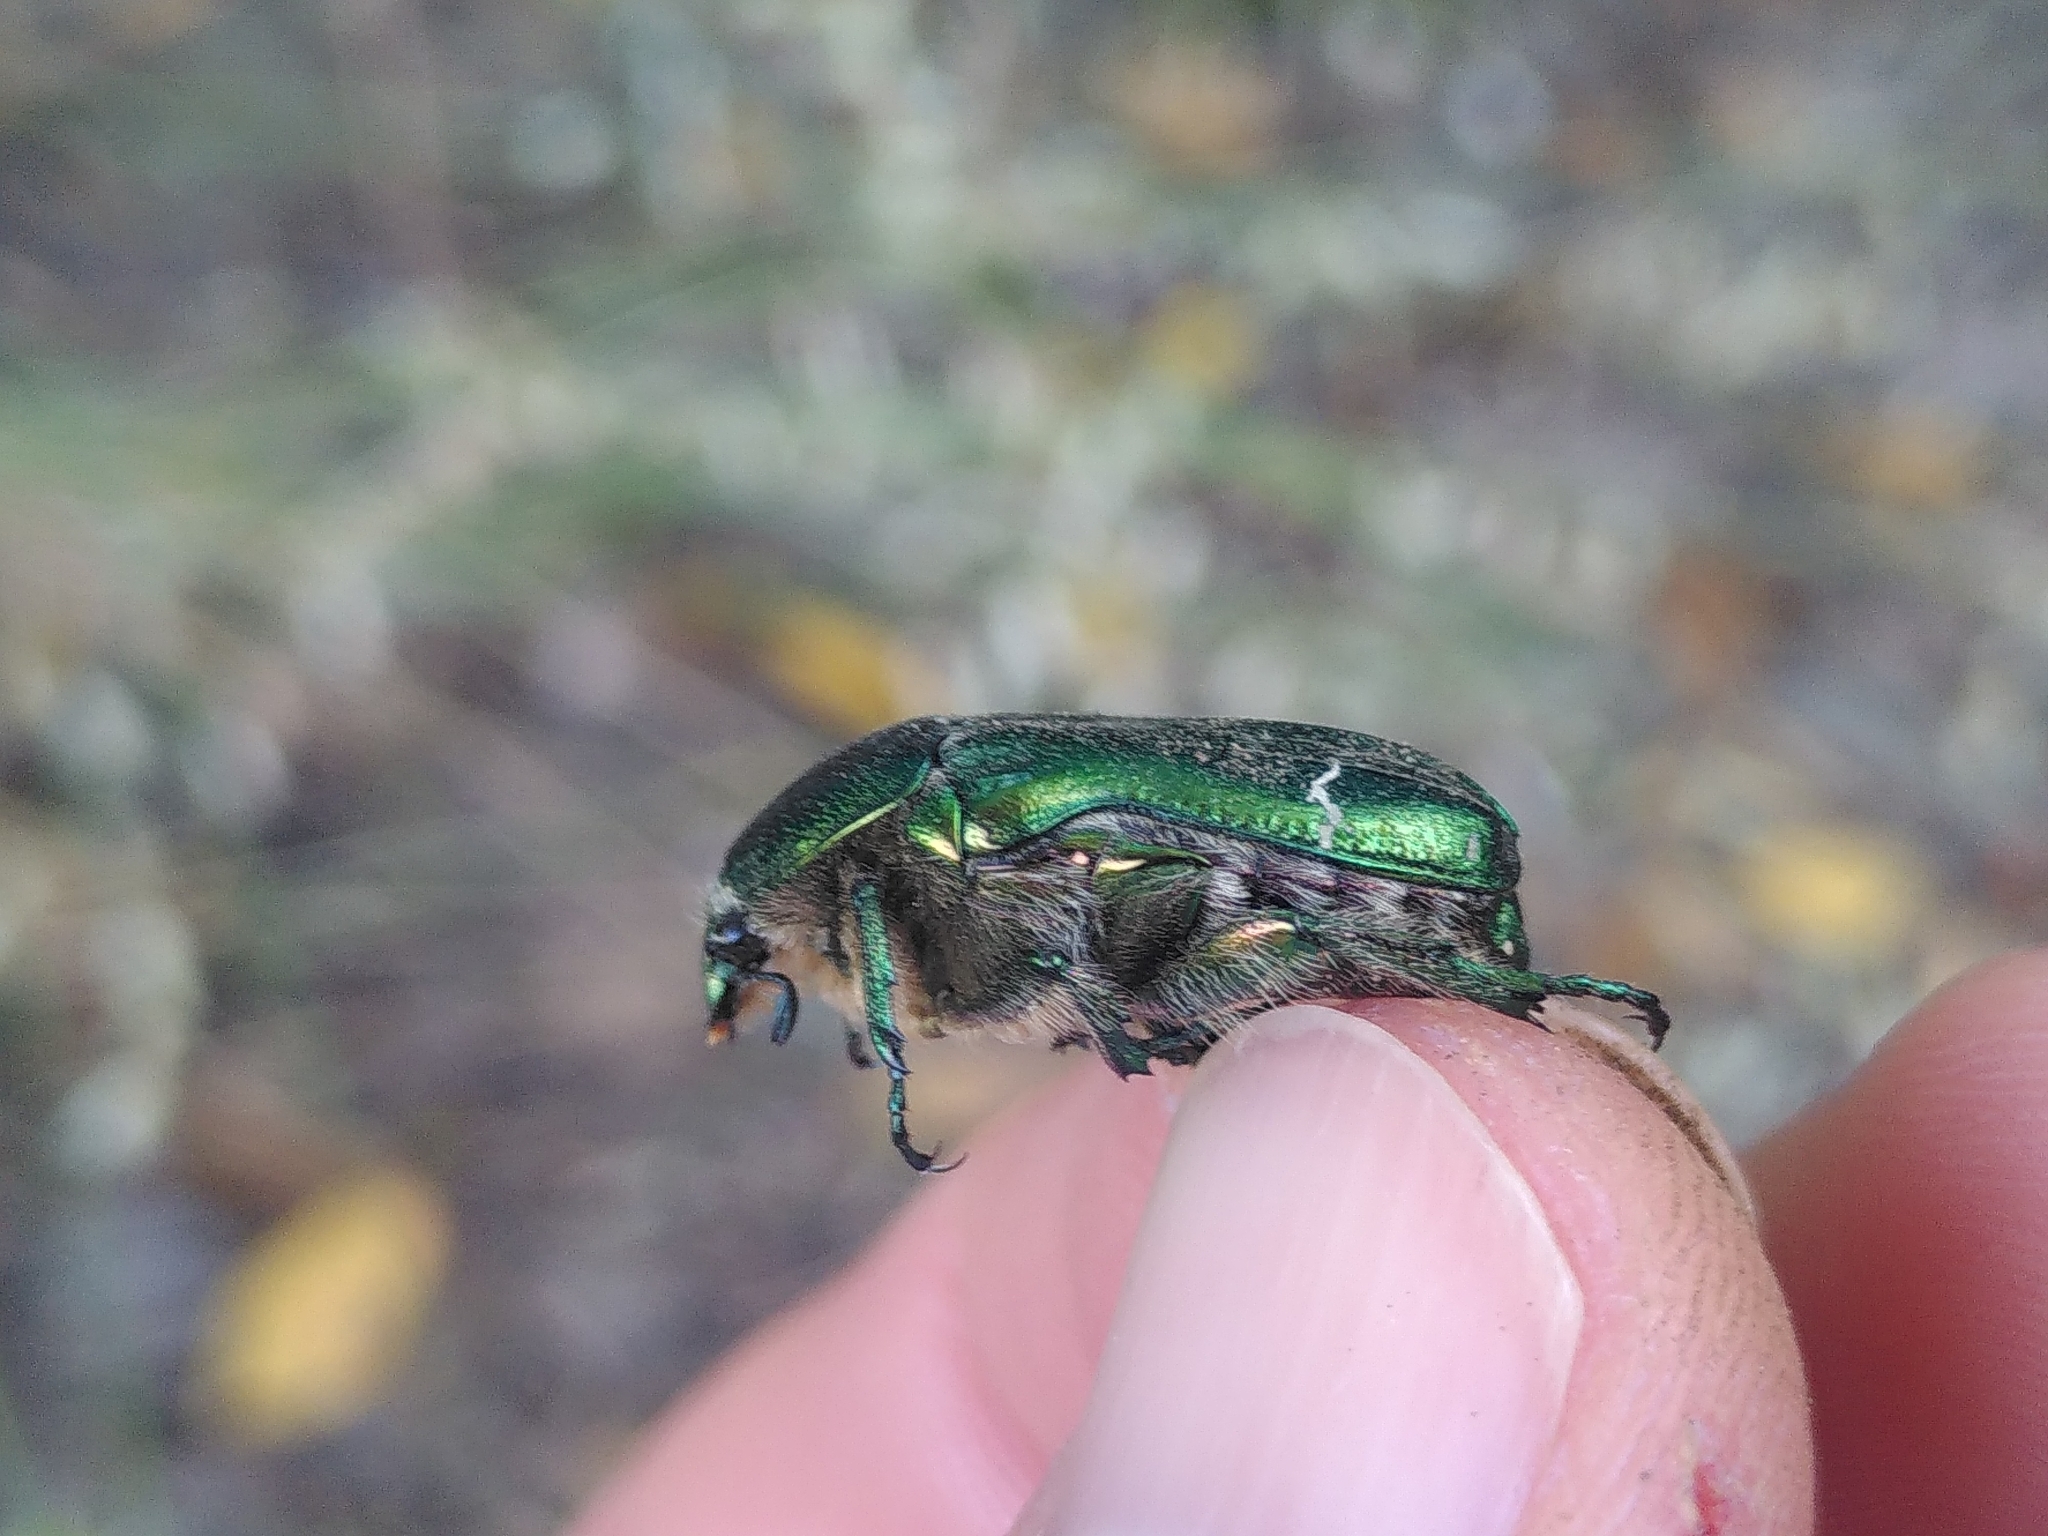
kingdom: Animalia
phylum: Arthropoda
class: Insecta
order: Coleoptera
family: Scarabaeidae
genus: Cetonia
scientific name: Cetonia aurata
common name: Rose chafer
